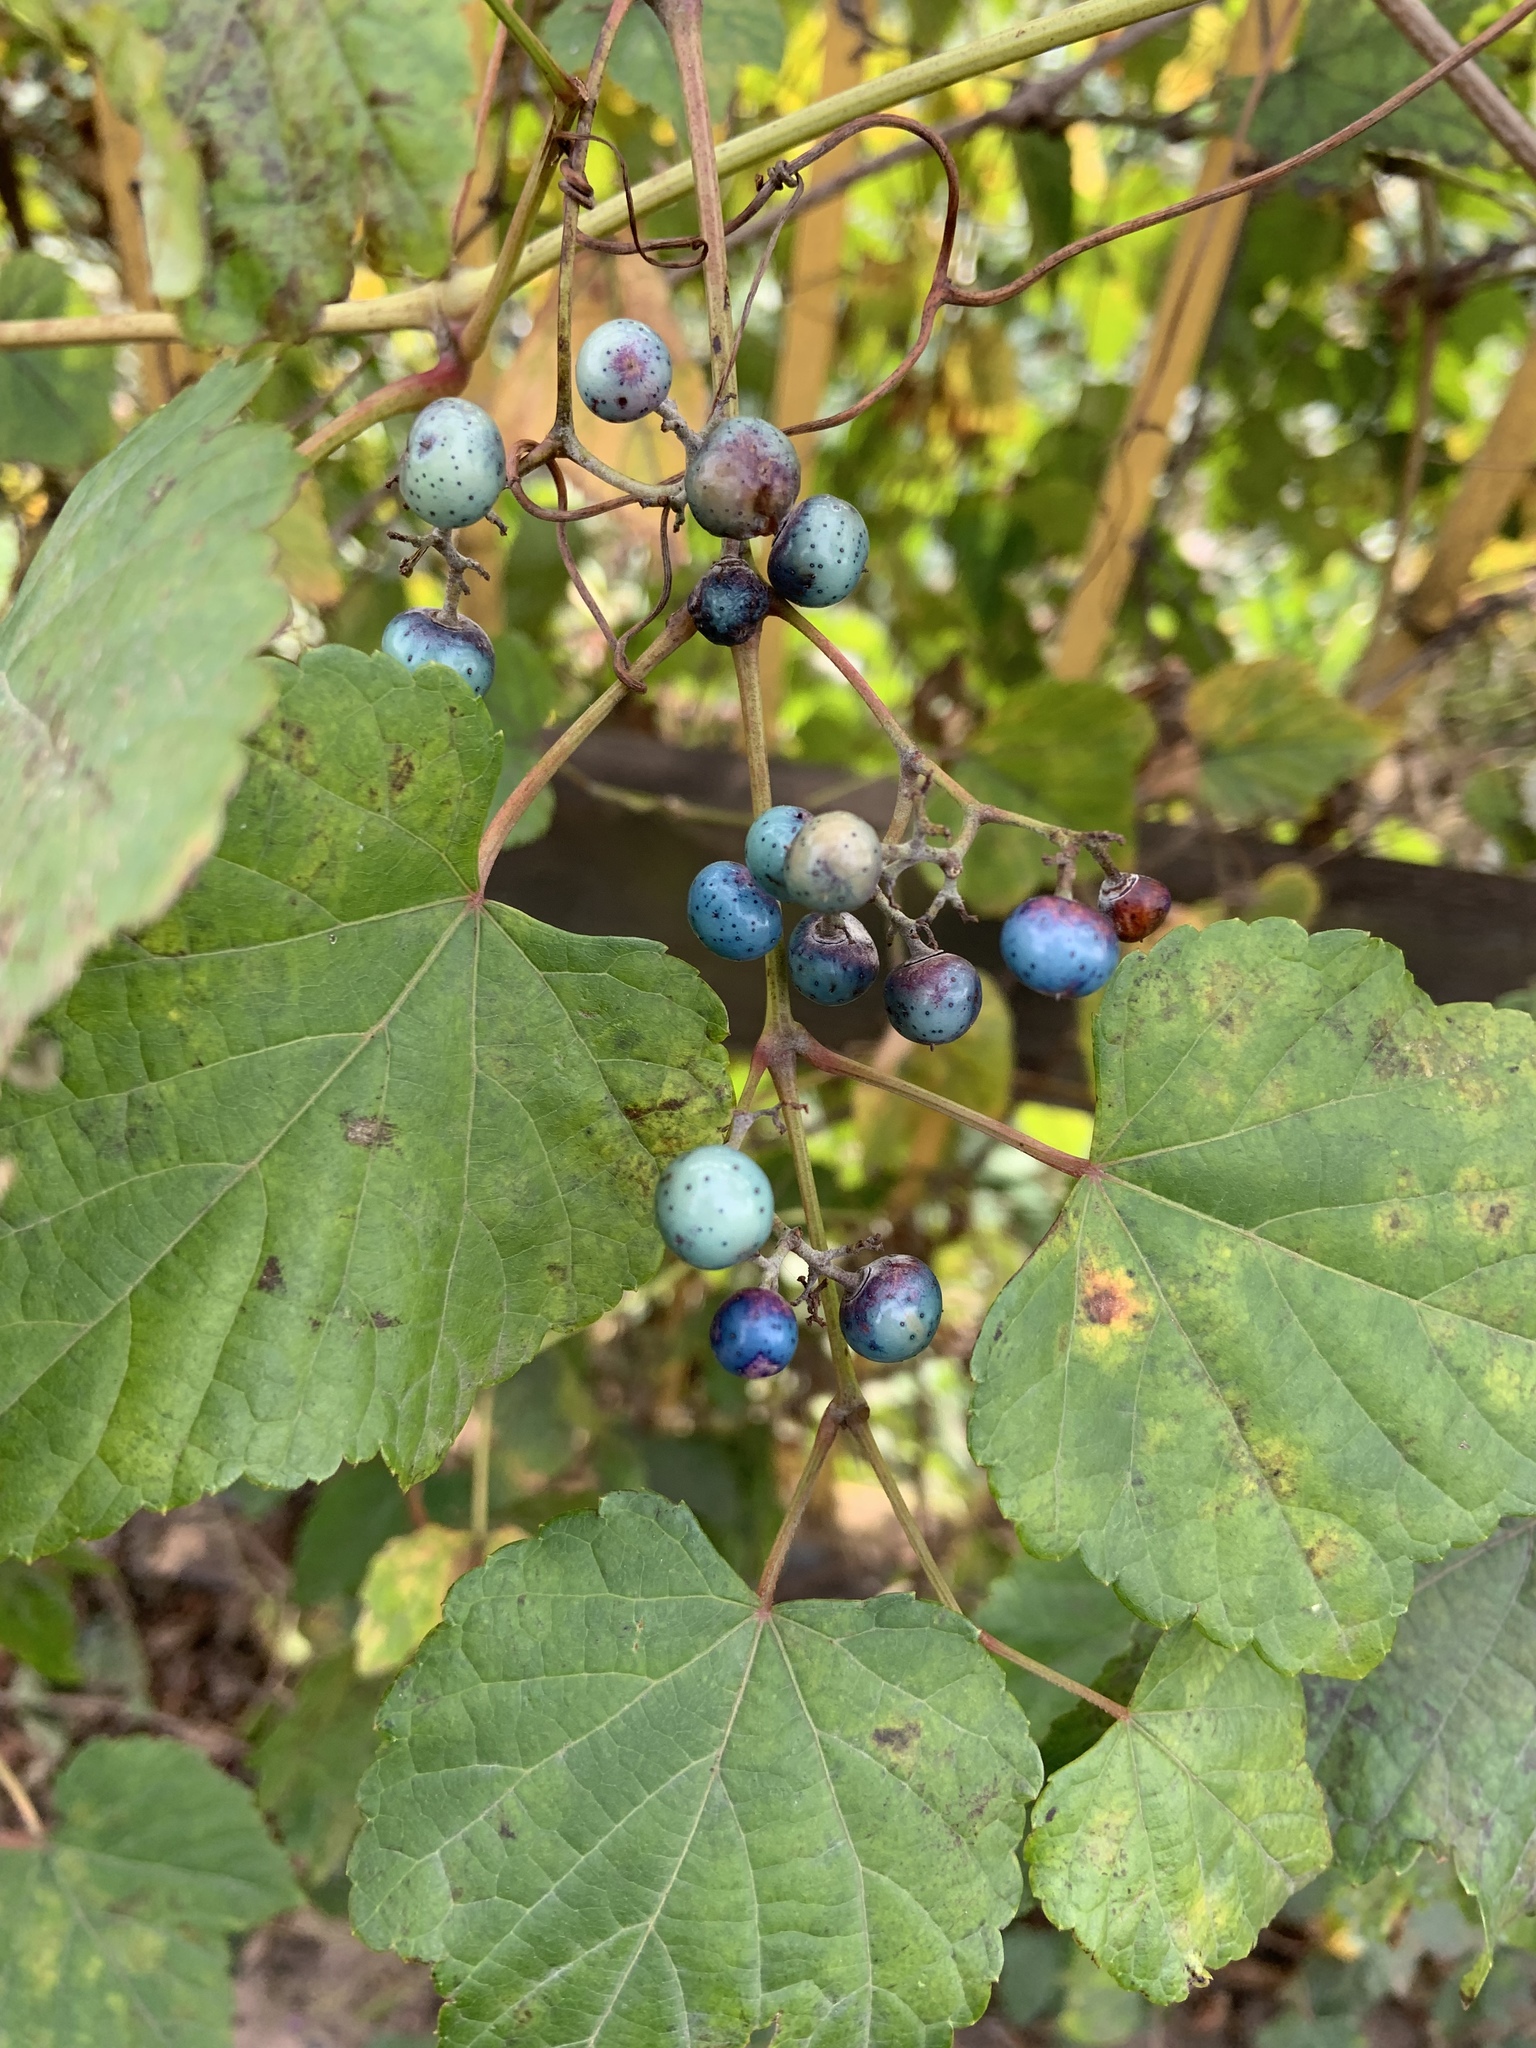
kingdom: Plantae
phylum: Tracheophyta
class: Magnoliopsida
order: Vitales
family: Vitaceae
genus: Ampelopsis
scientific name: Ampelopsis glandulosa
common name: Amur peppervine
